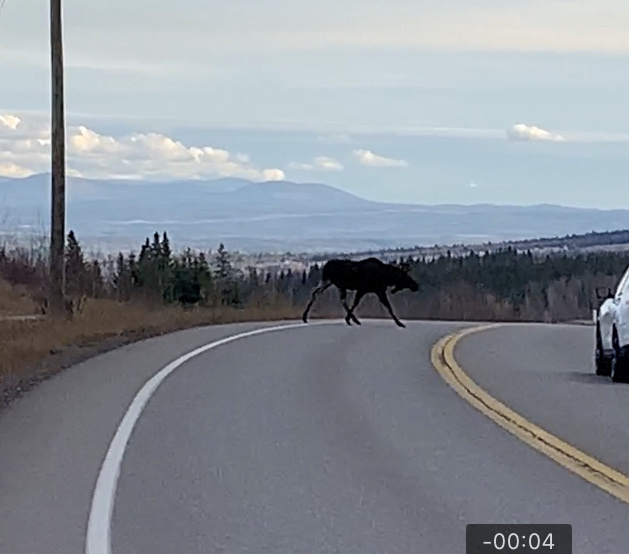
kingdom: Animalia
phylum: Chordata
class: Mammalia
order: Artiodactyla
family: Cervidae
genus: Alces
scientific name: Alces americanus
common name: Moose
